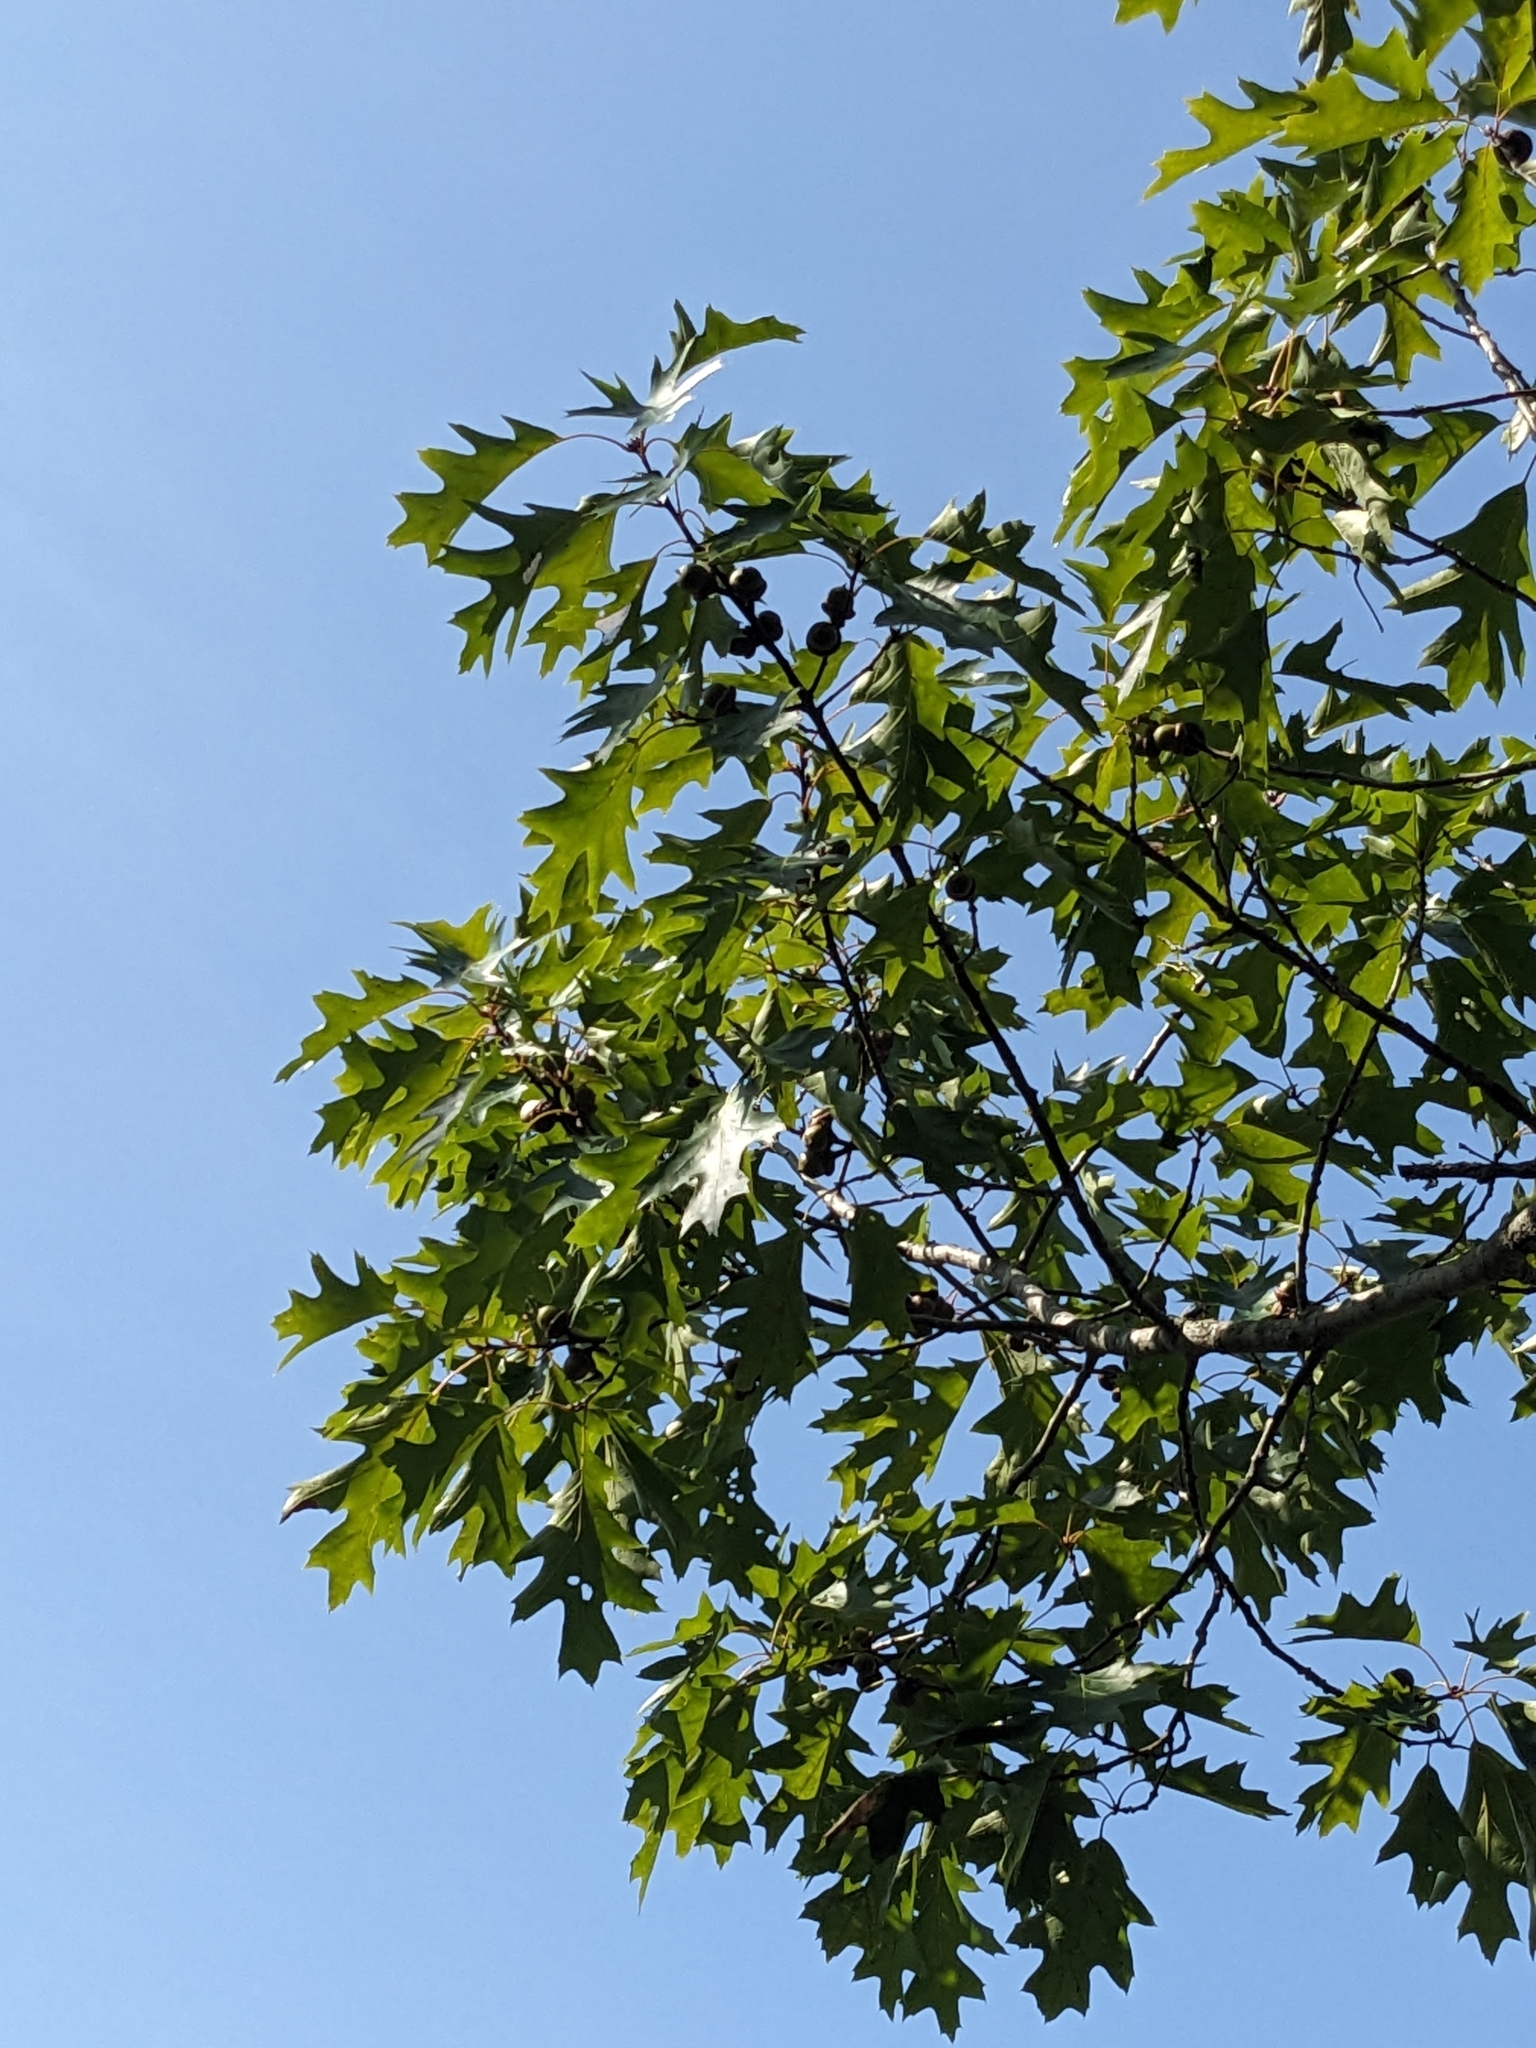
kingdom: Plantae
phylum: Tracheophyta
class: Magnoliopsida
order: Fagales
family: Fagaceae
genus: Quercus
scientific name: Quercus rubra
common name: Red oak
